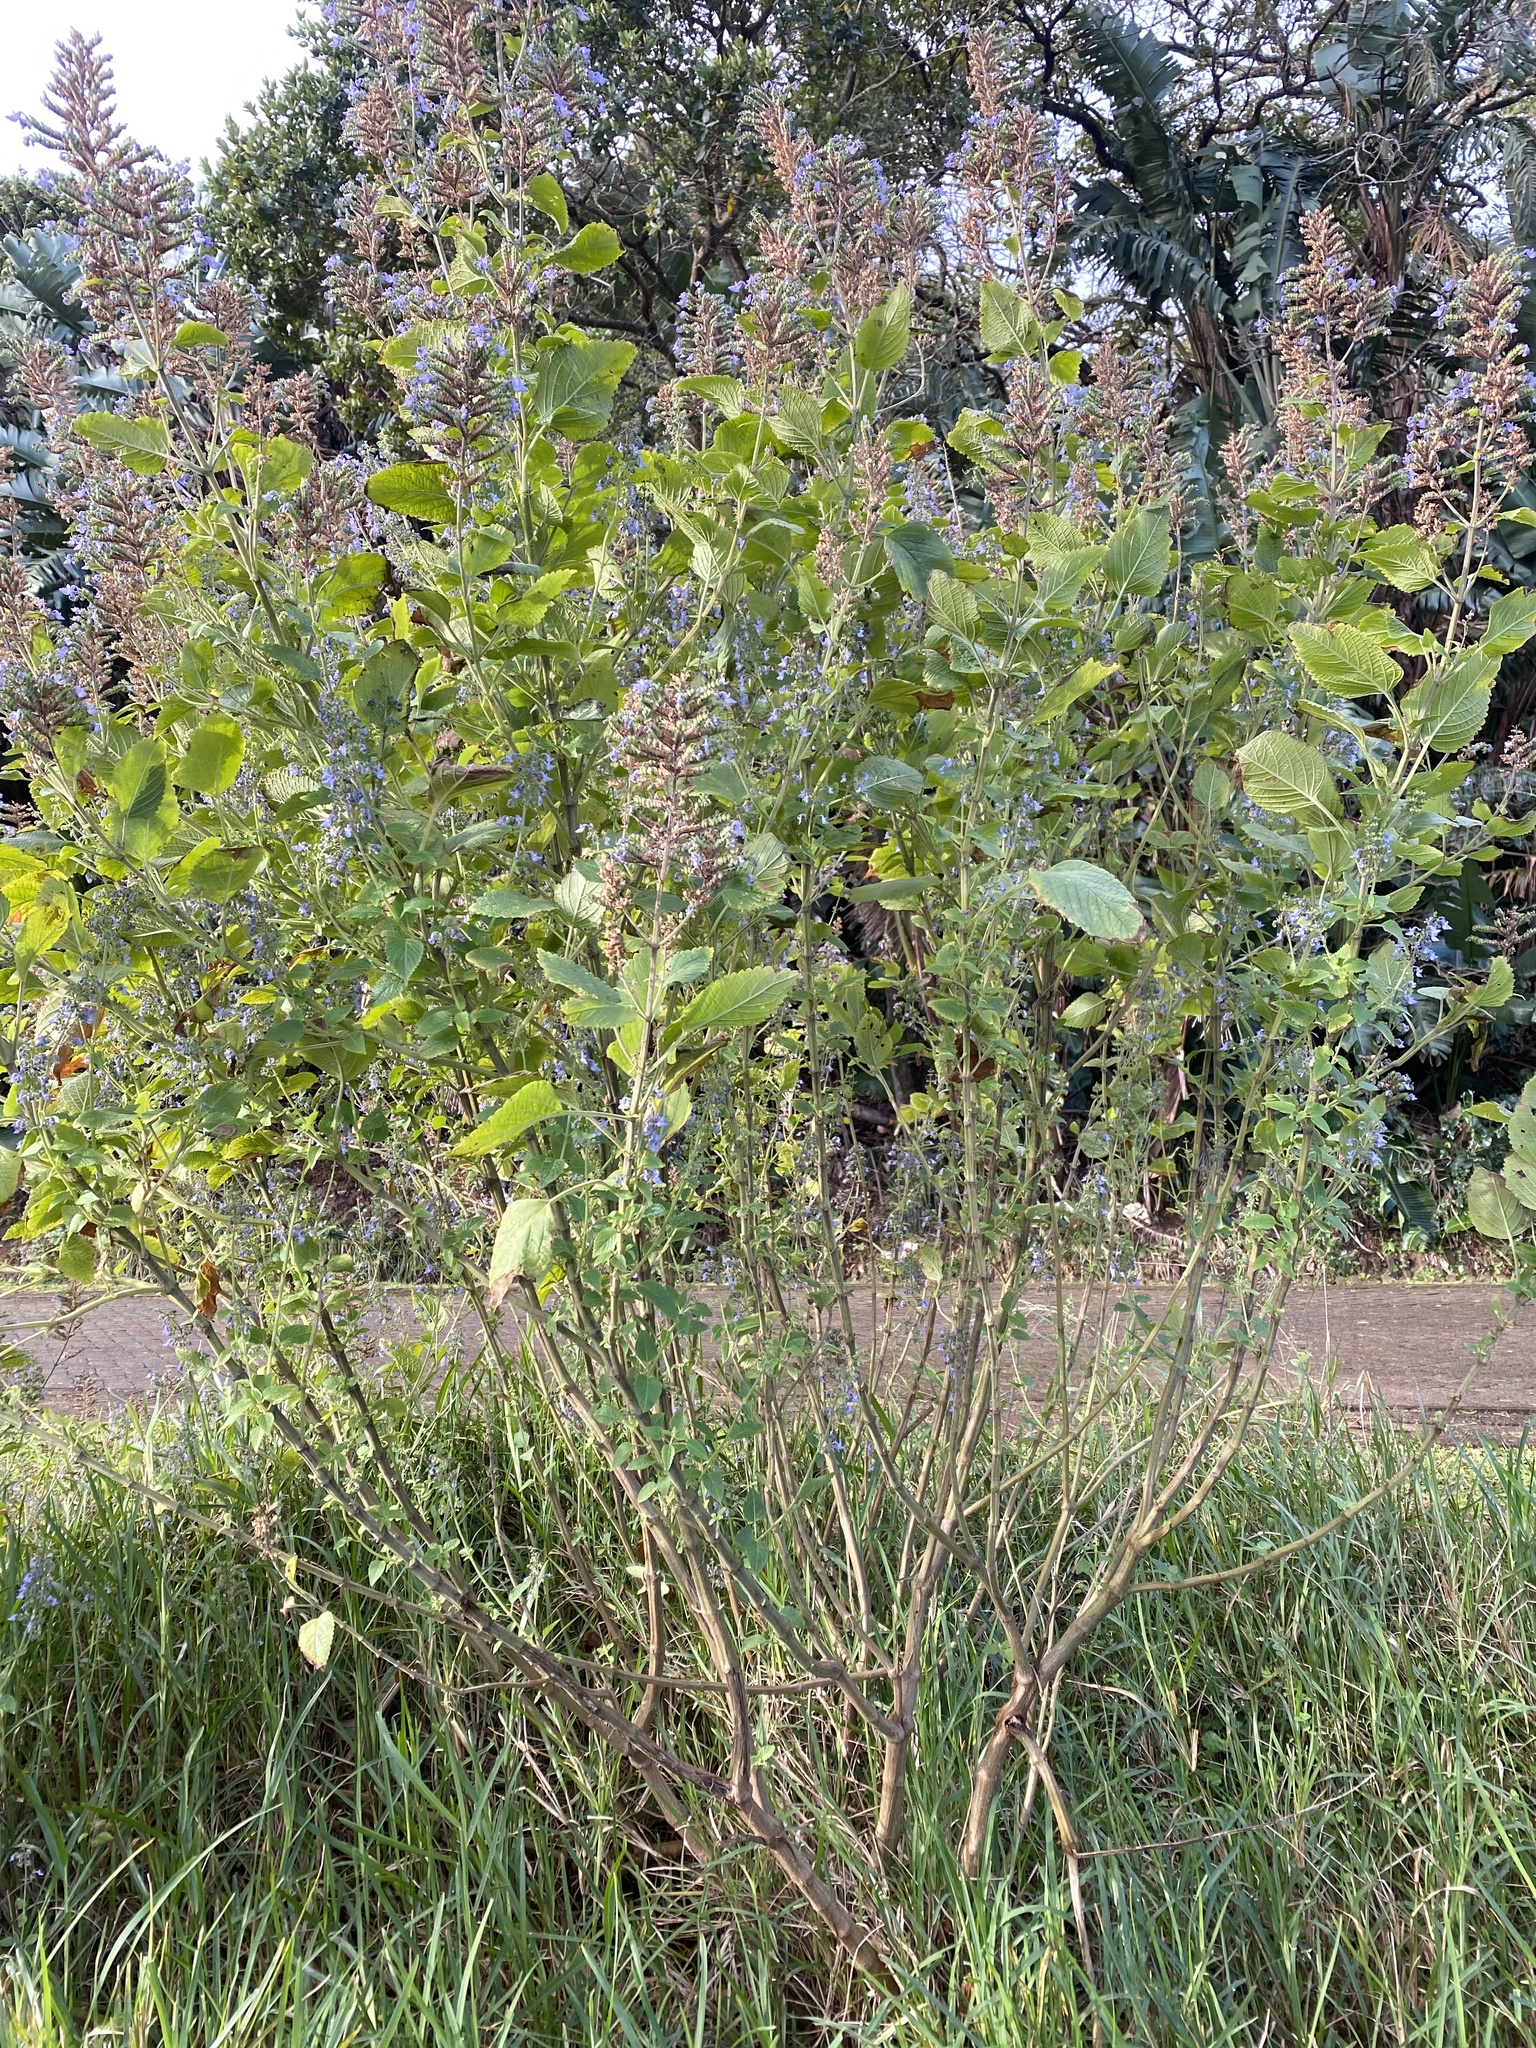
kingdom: Plantae
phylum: Tracheophyta
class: Magnoliopsida
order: Lamiales
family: Lamiaceae
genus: Coleus
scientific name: Coleus hereroensis
